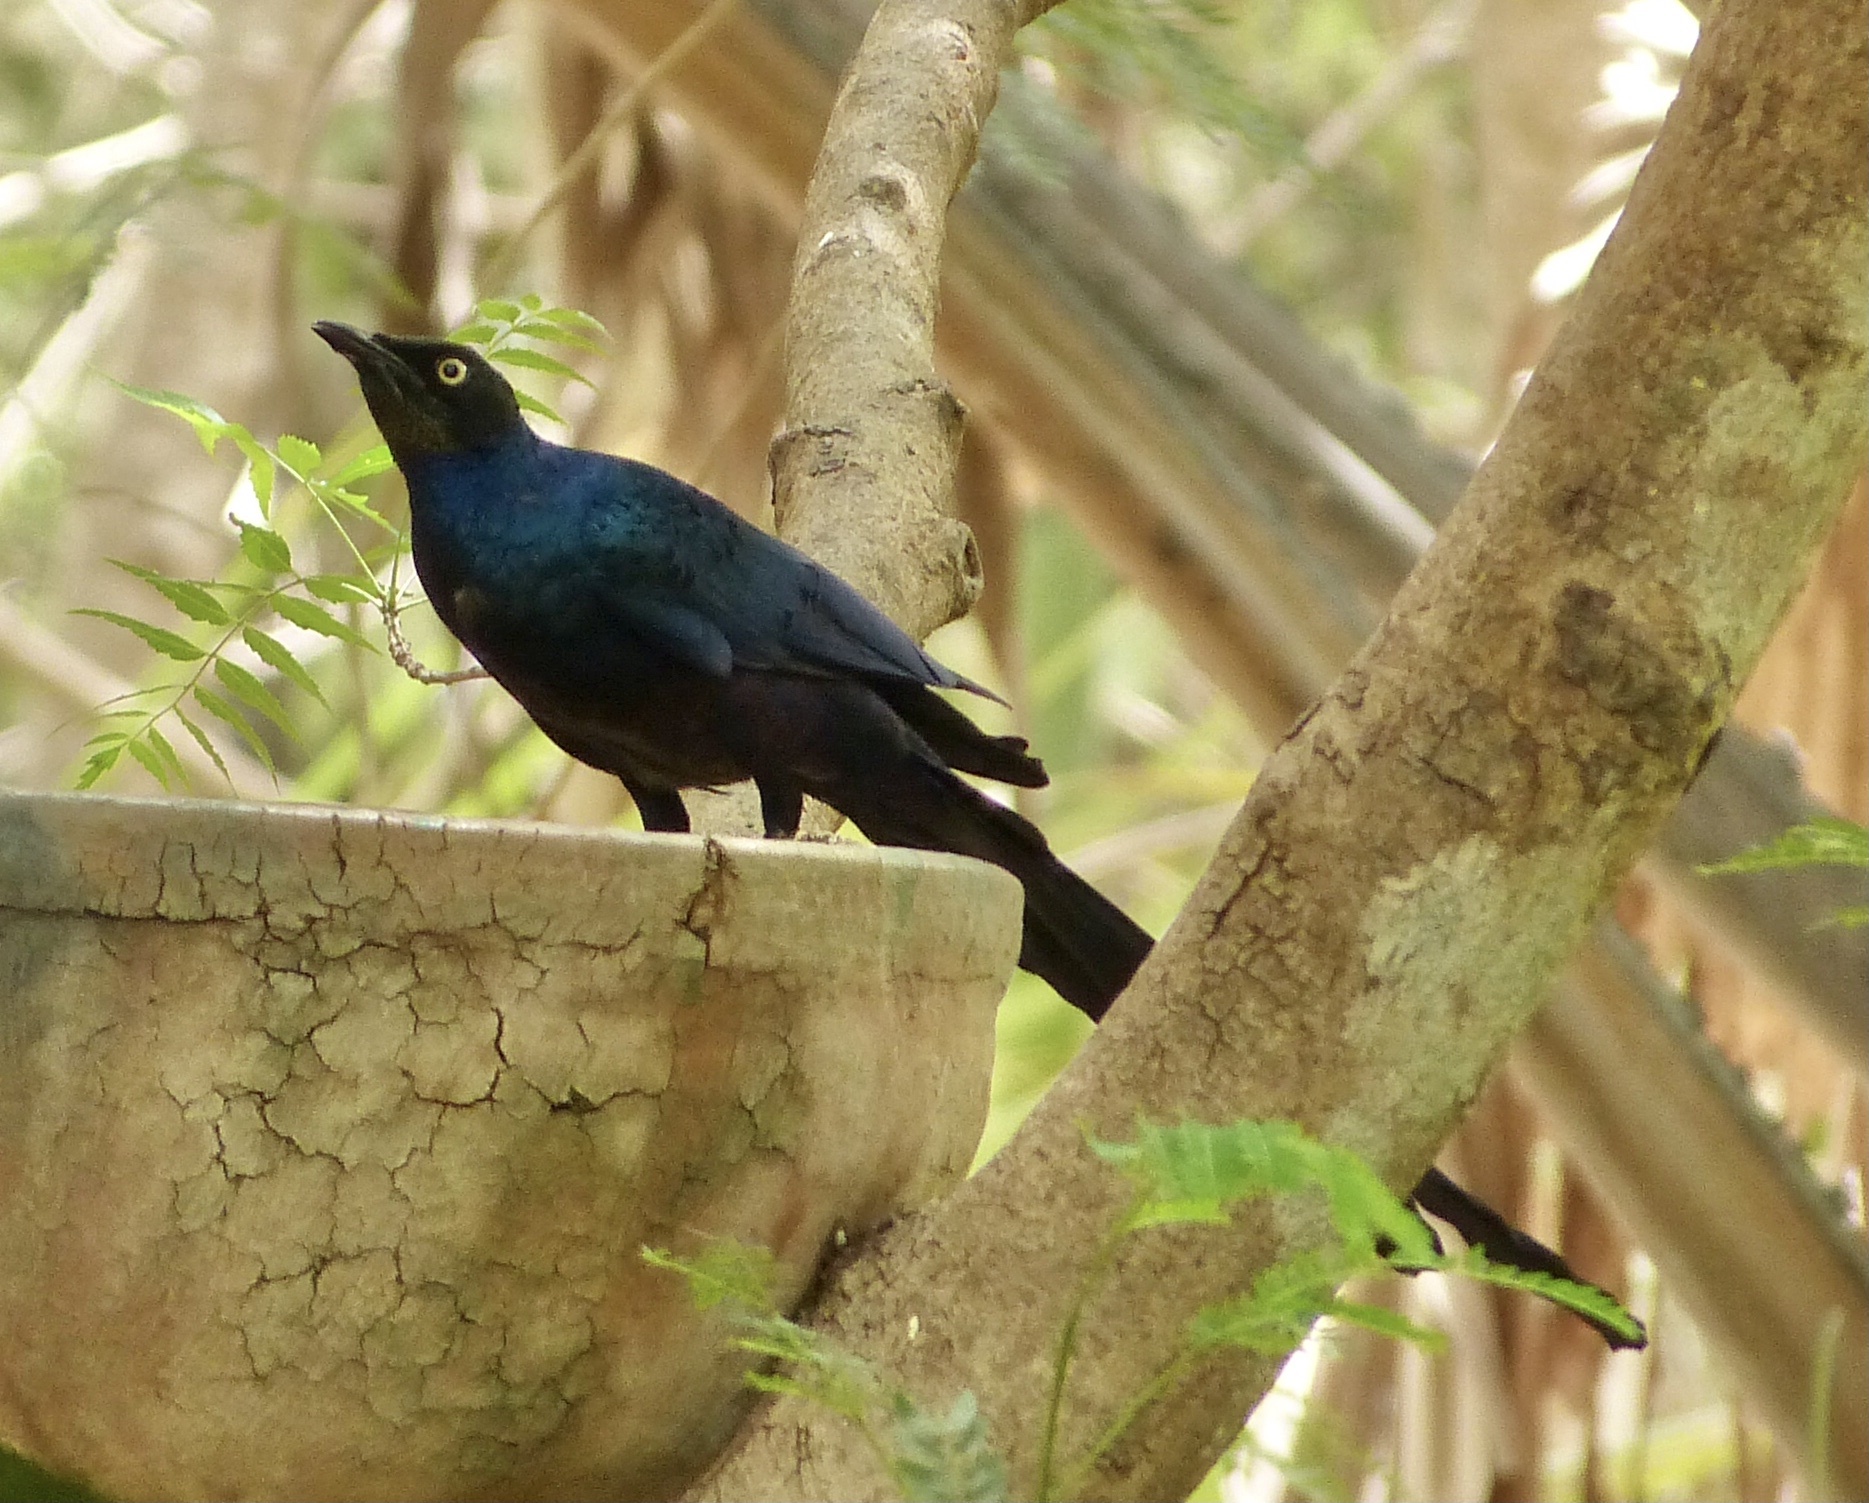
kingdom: Animalia
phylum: Chordata
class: Aves
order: Passeriformes
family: Sturnidae
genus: Lamprotornis
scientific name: Lamprotornis caudatus
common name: Long-tailed glossy starling
